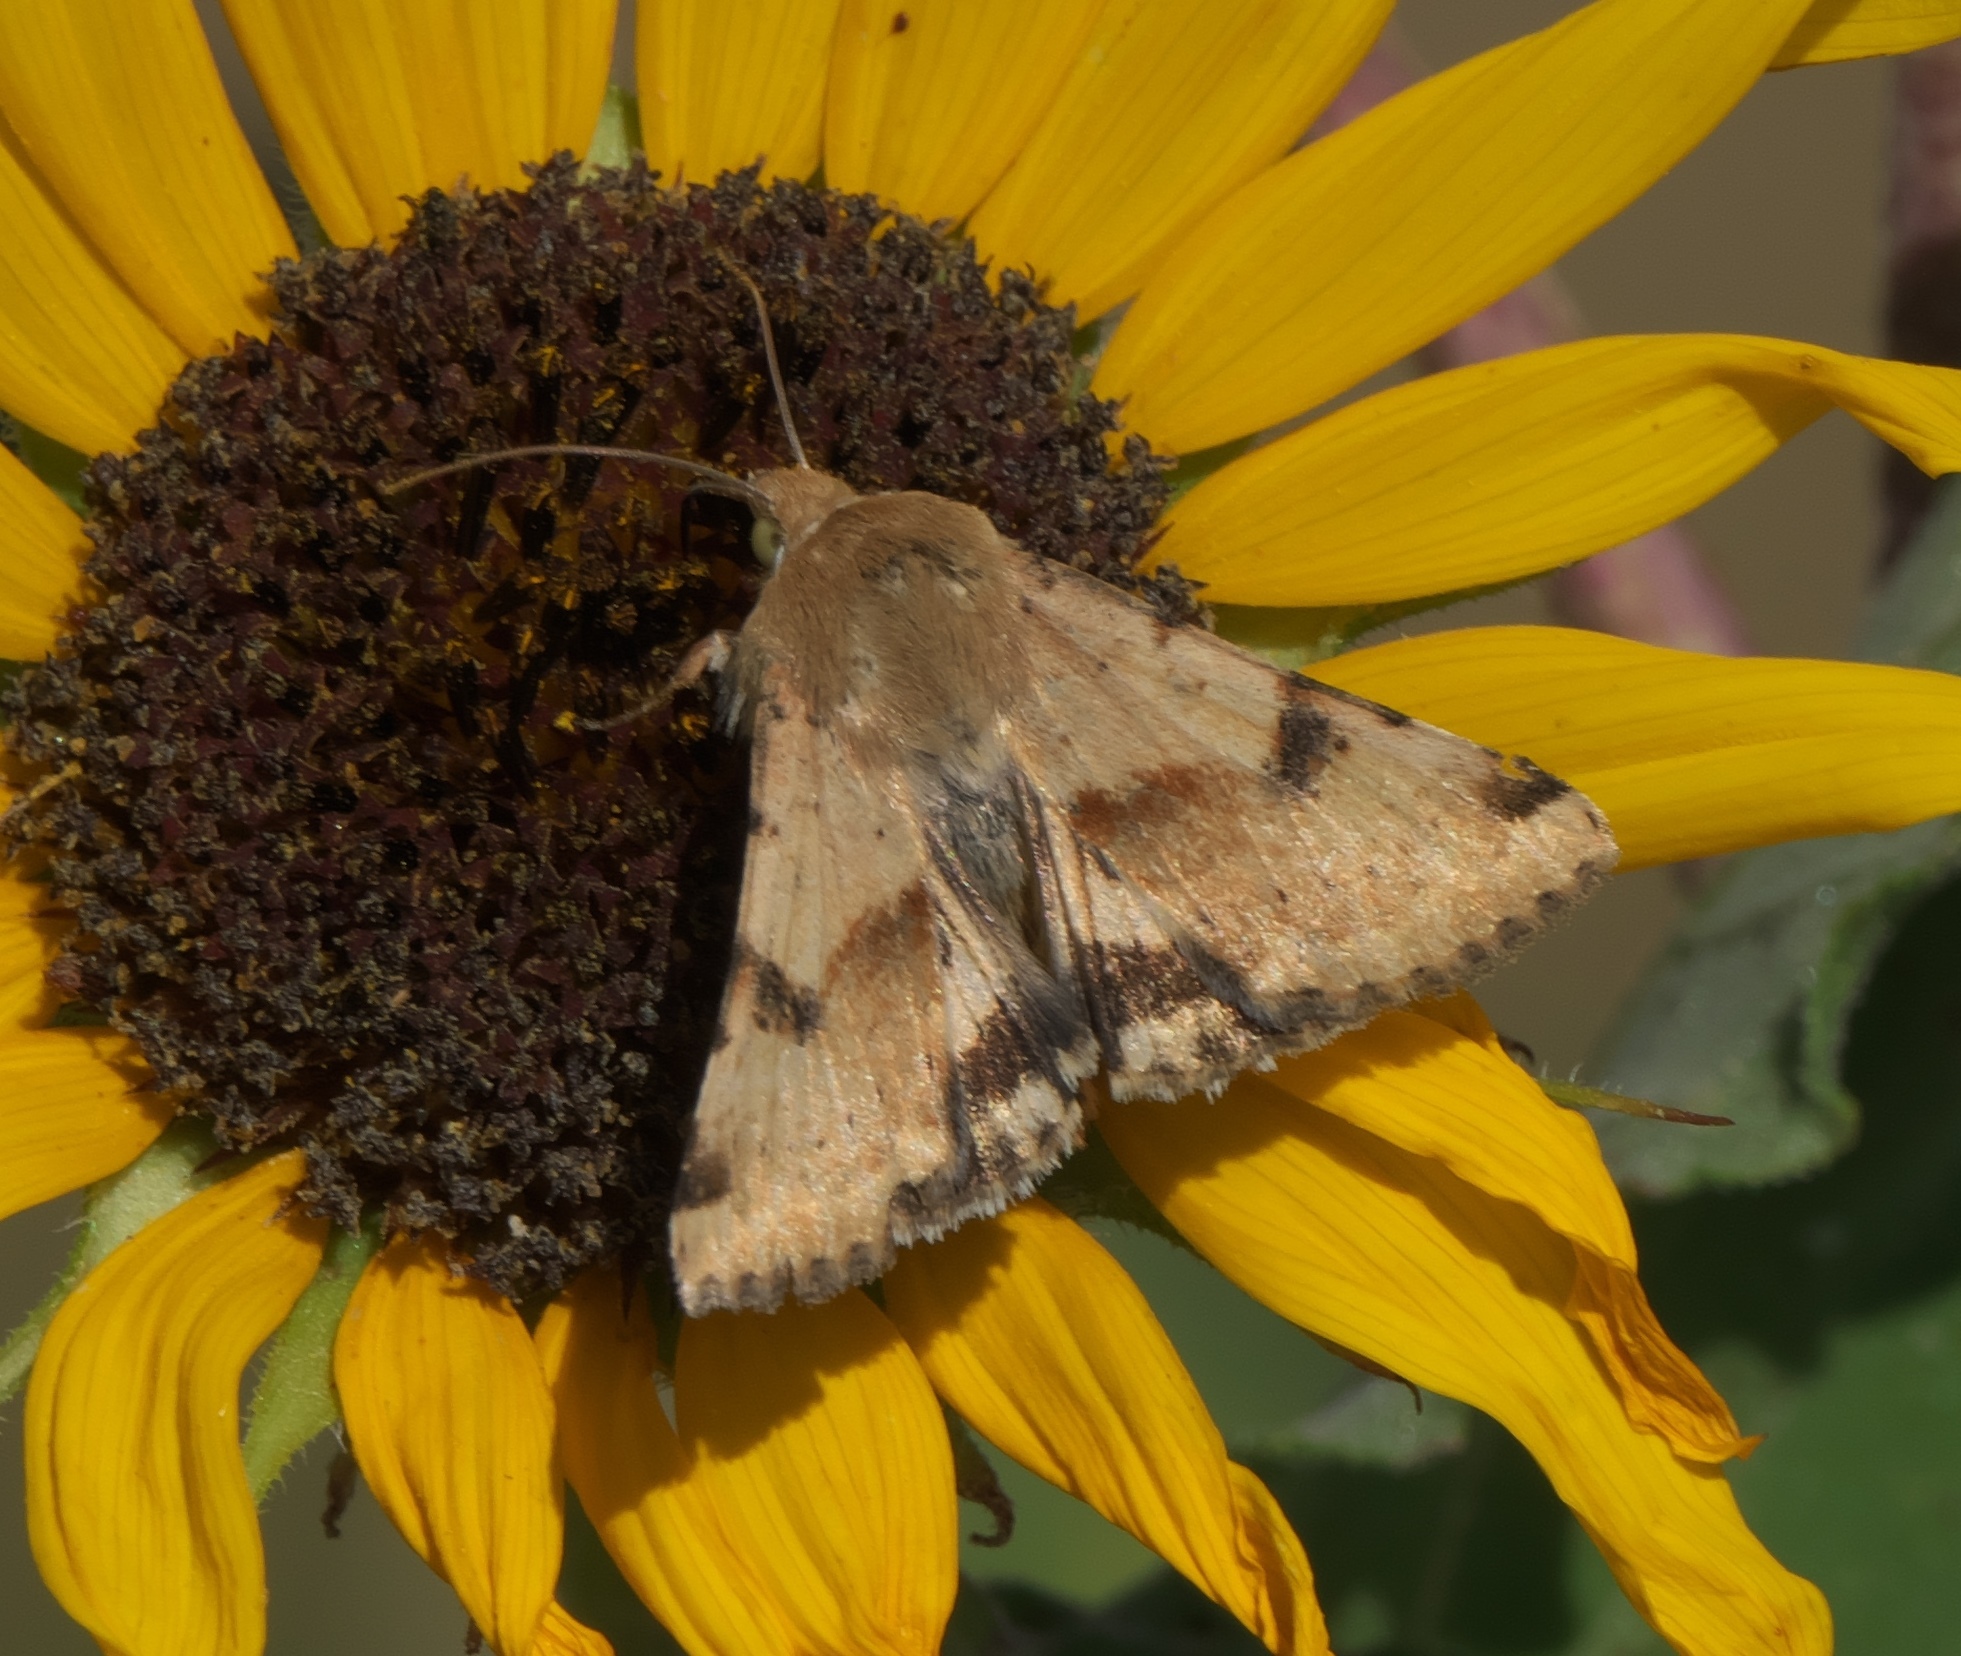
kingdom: Animalia
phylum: Arthropoda
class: Insecta
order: Lepidoptera
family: Noctuidae
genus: Heliothis
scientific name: Heliothis phloxiphaga
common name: Darker spotted straw moth
